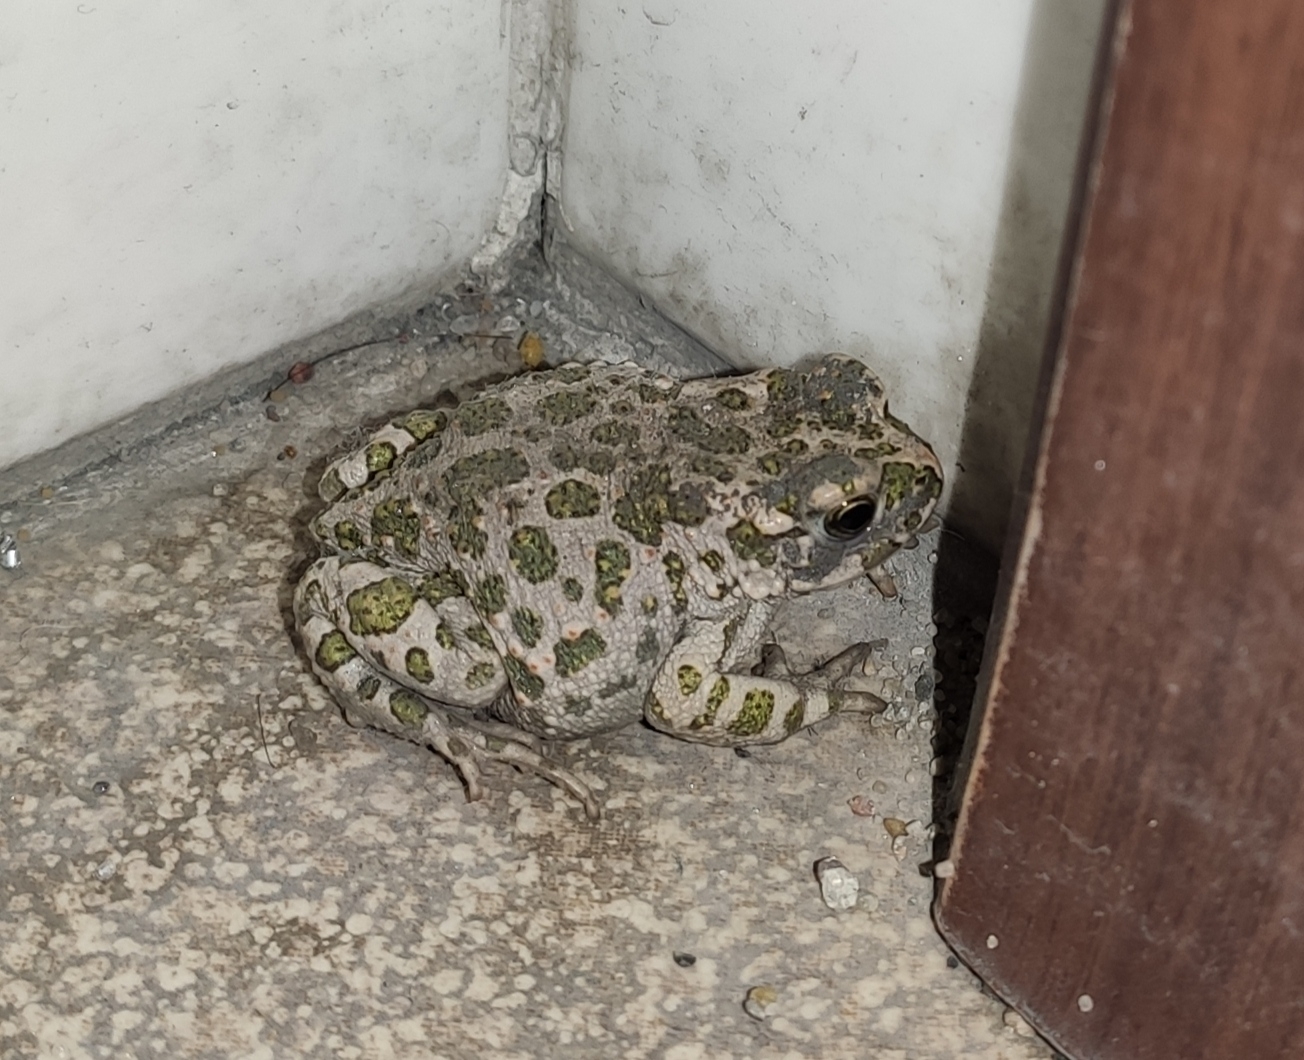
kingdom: Animalia
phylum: Chordata
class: Amphibia
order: Anura
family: Bufonidae
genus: Bufotes
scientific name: Bufotes viridis
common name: European green toad
